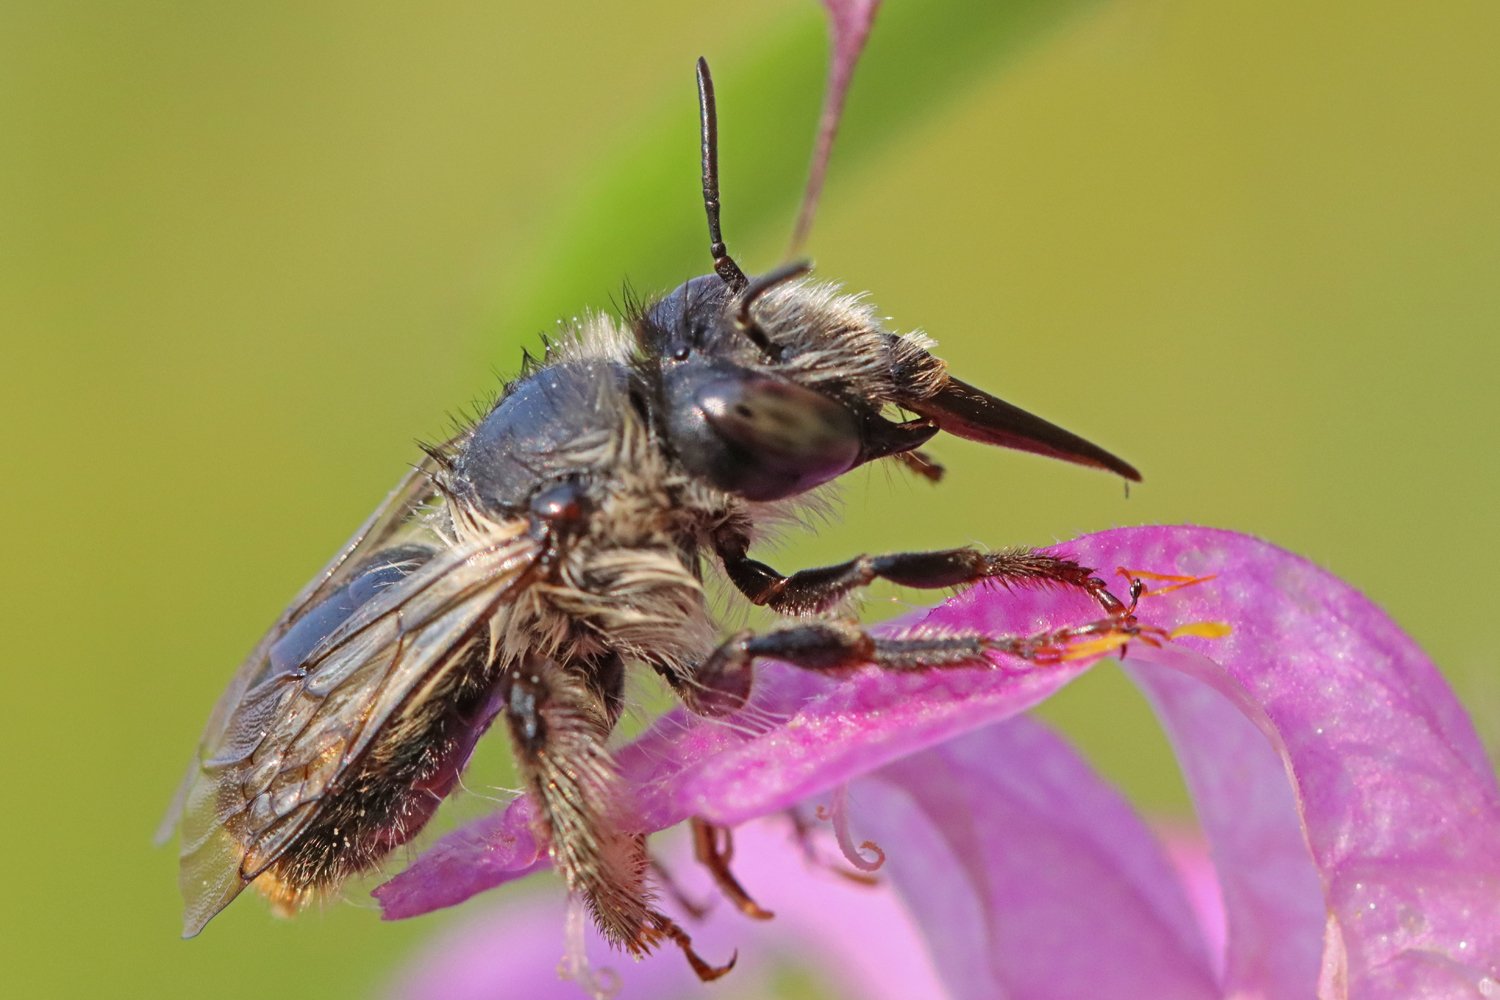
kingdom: Animalia
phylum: Arthropoda
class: Insecta
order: Hymenoptera
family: Apidae
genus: Anthophora
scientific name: Anthophora terminalis
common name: Orange-tipped wood-digger bee
